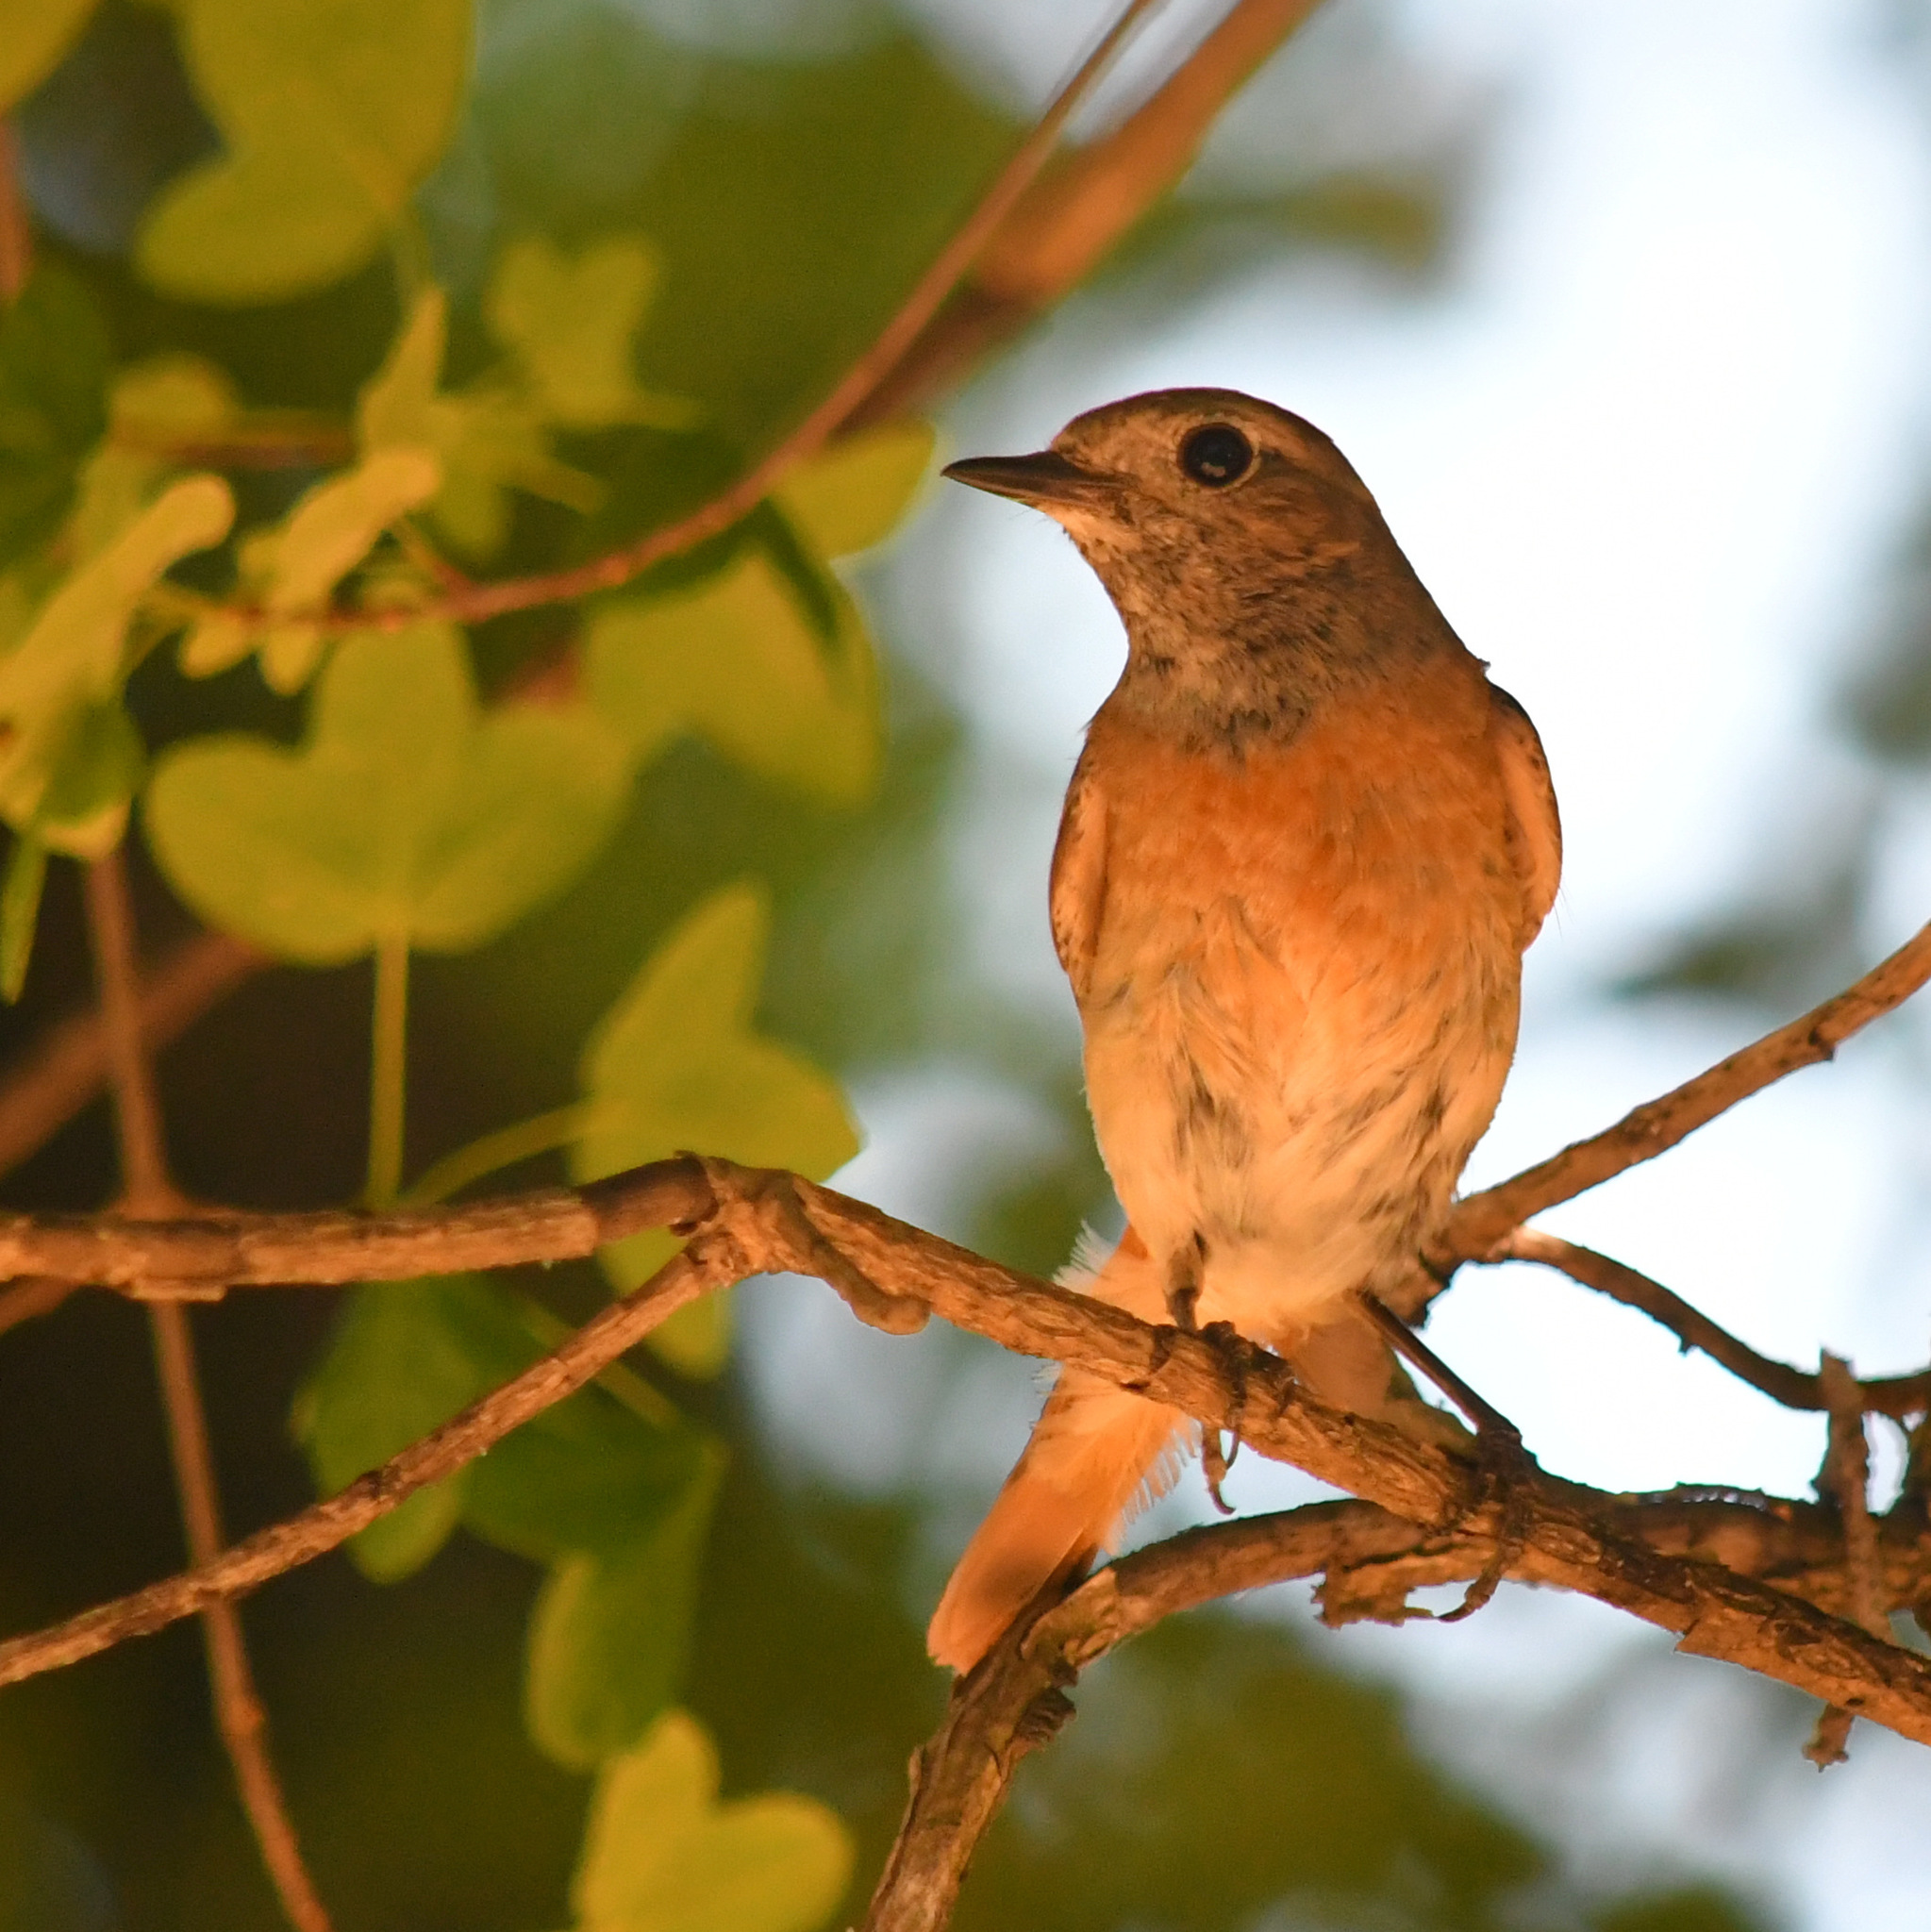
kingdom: Animalia
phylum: Chordata
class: Aves
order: Passeriformes
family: Muscicapidae
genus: Phoenicurus
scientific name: Phoenicurus phoenicurus
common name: Common redstart
